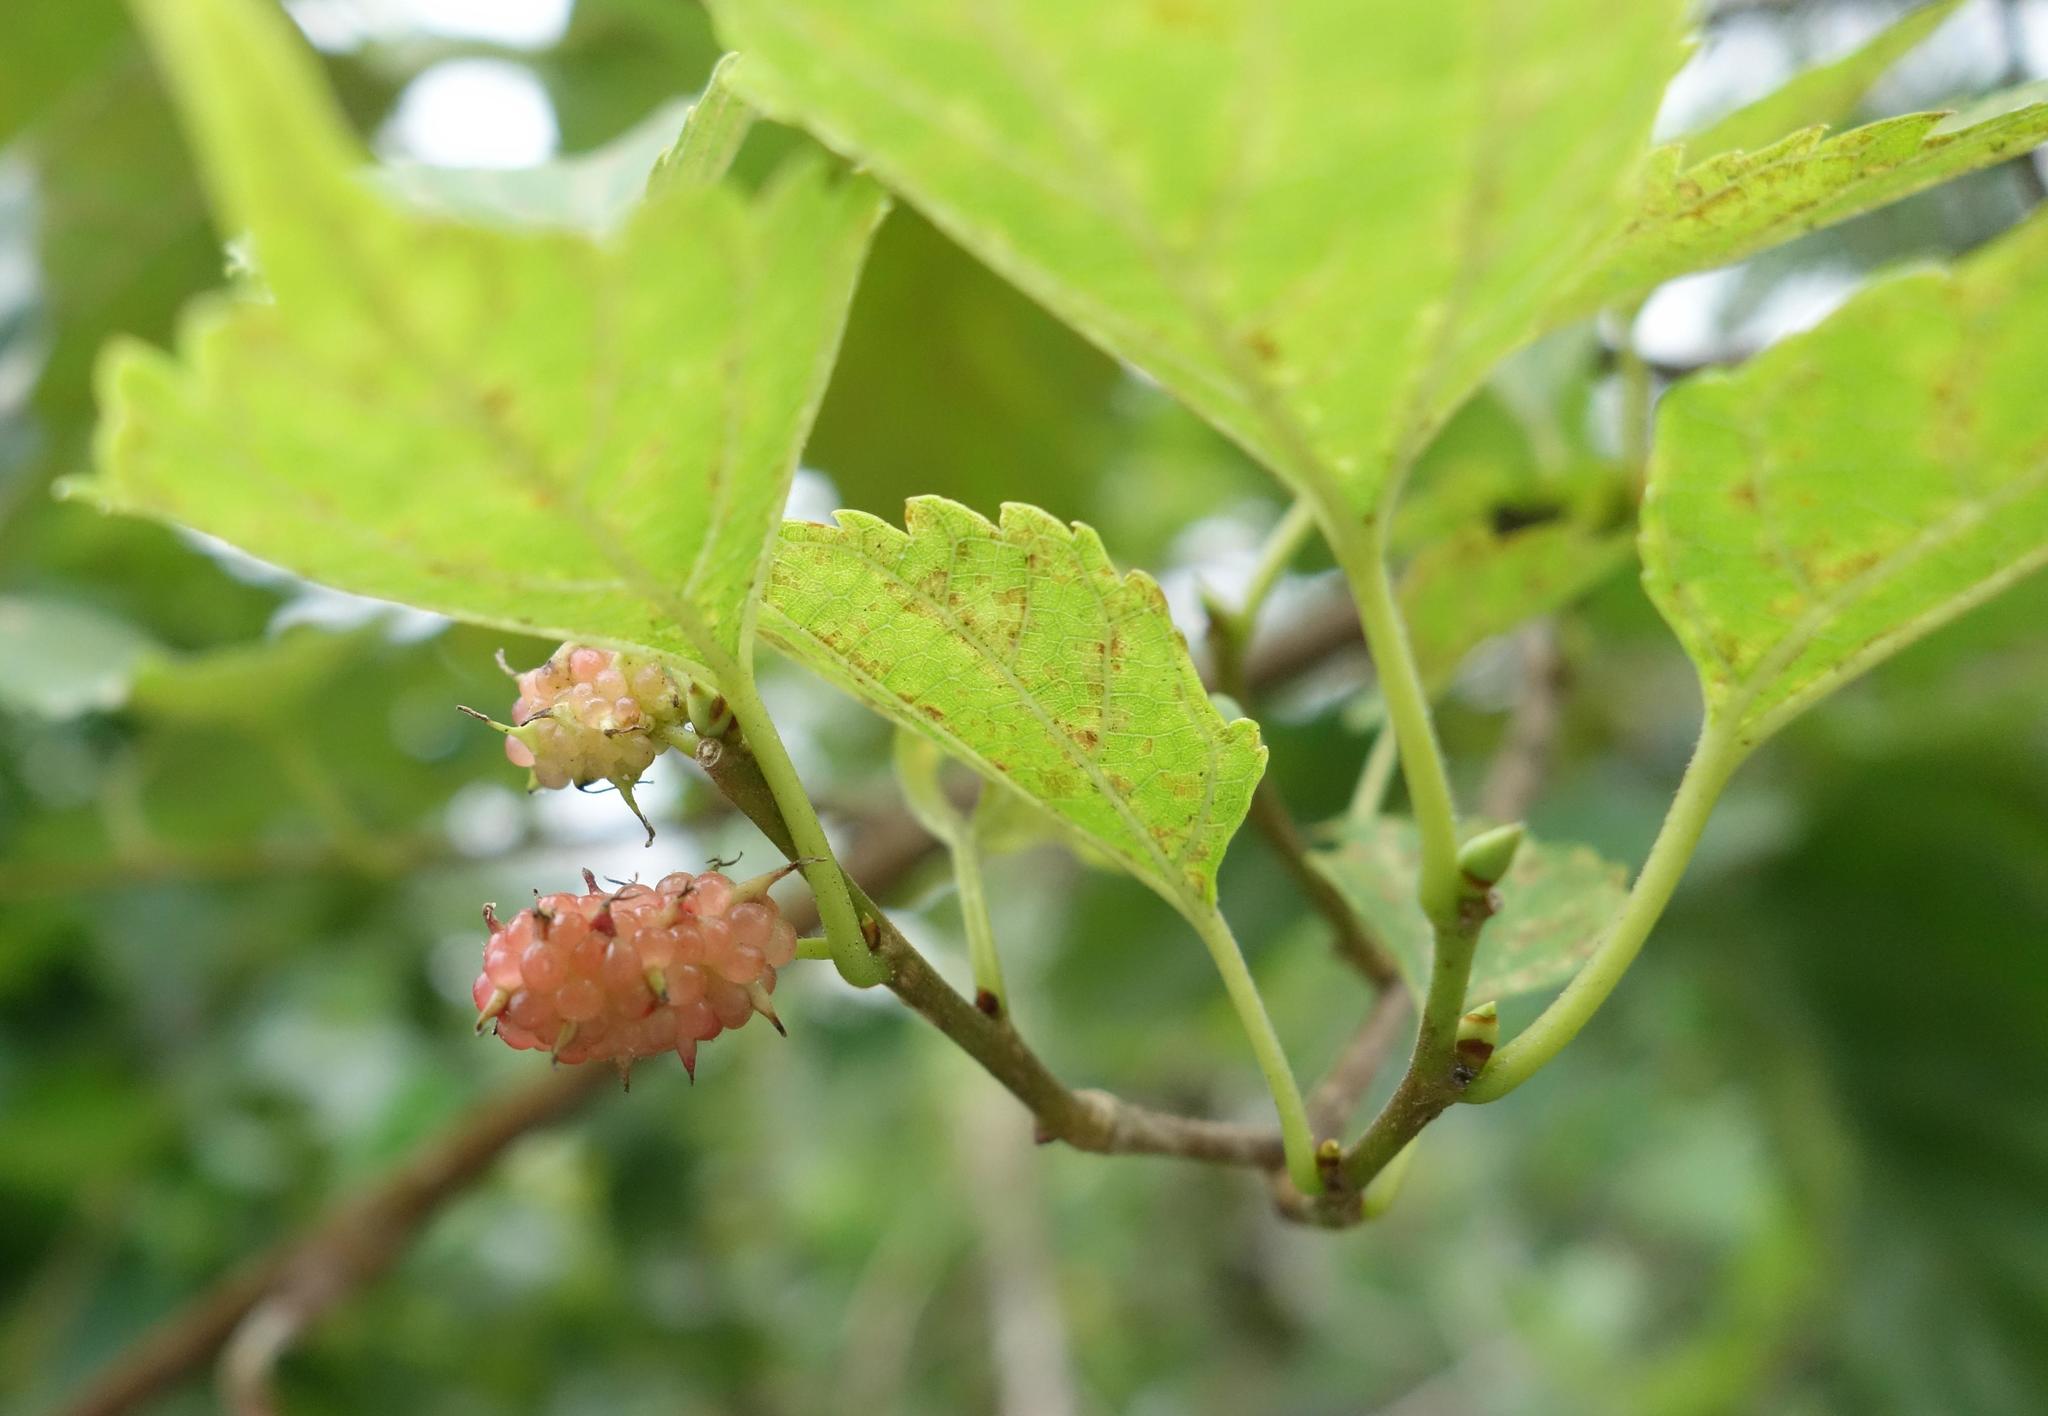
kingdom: Plantae
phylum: Tracheophyta
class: Magnoliopsida
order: Rosales
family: Moraceae
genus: Morus
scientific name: Morus indica
